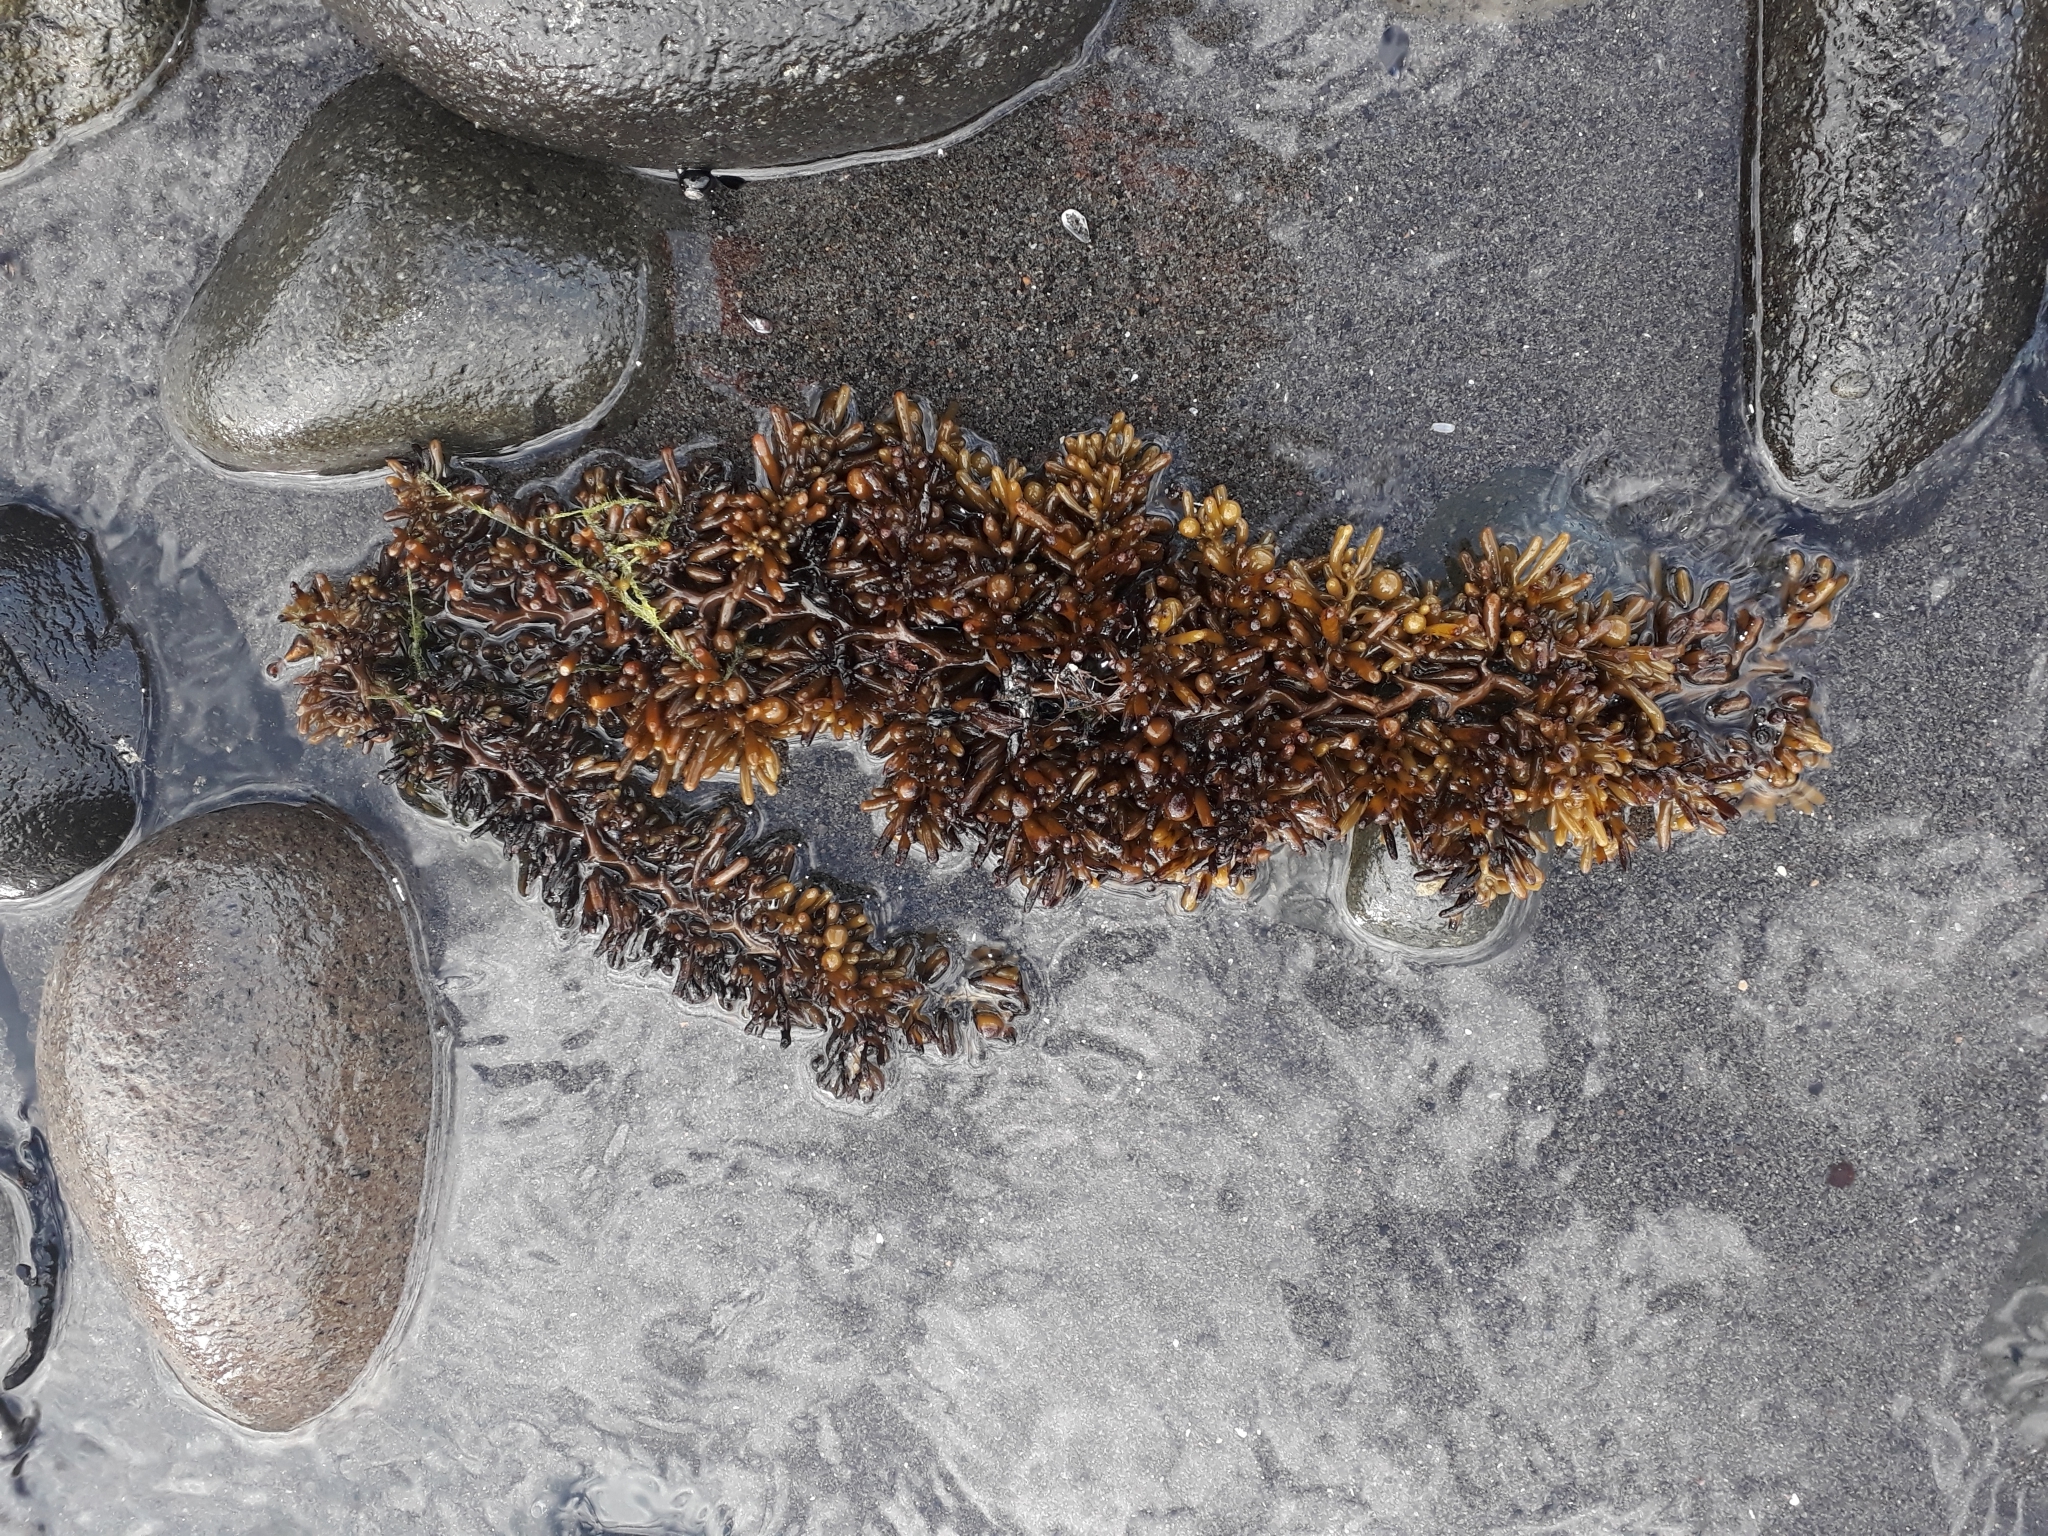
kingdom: Chromista
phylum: Ochrophyta
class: Phaeophyceae
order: Fucales
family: Sargassaceae
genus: Cystophora
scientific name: Cystophora torulosa
